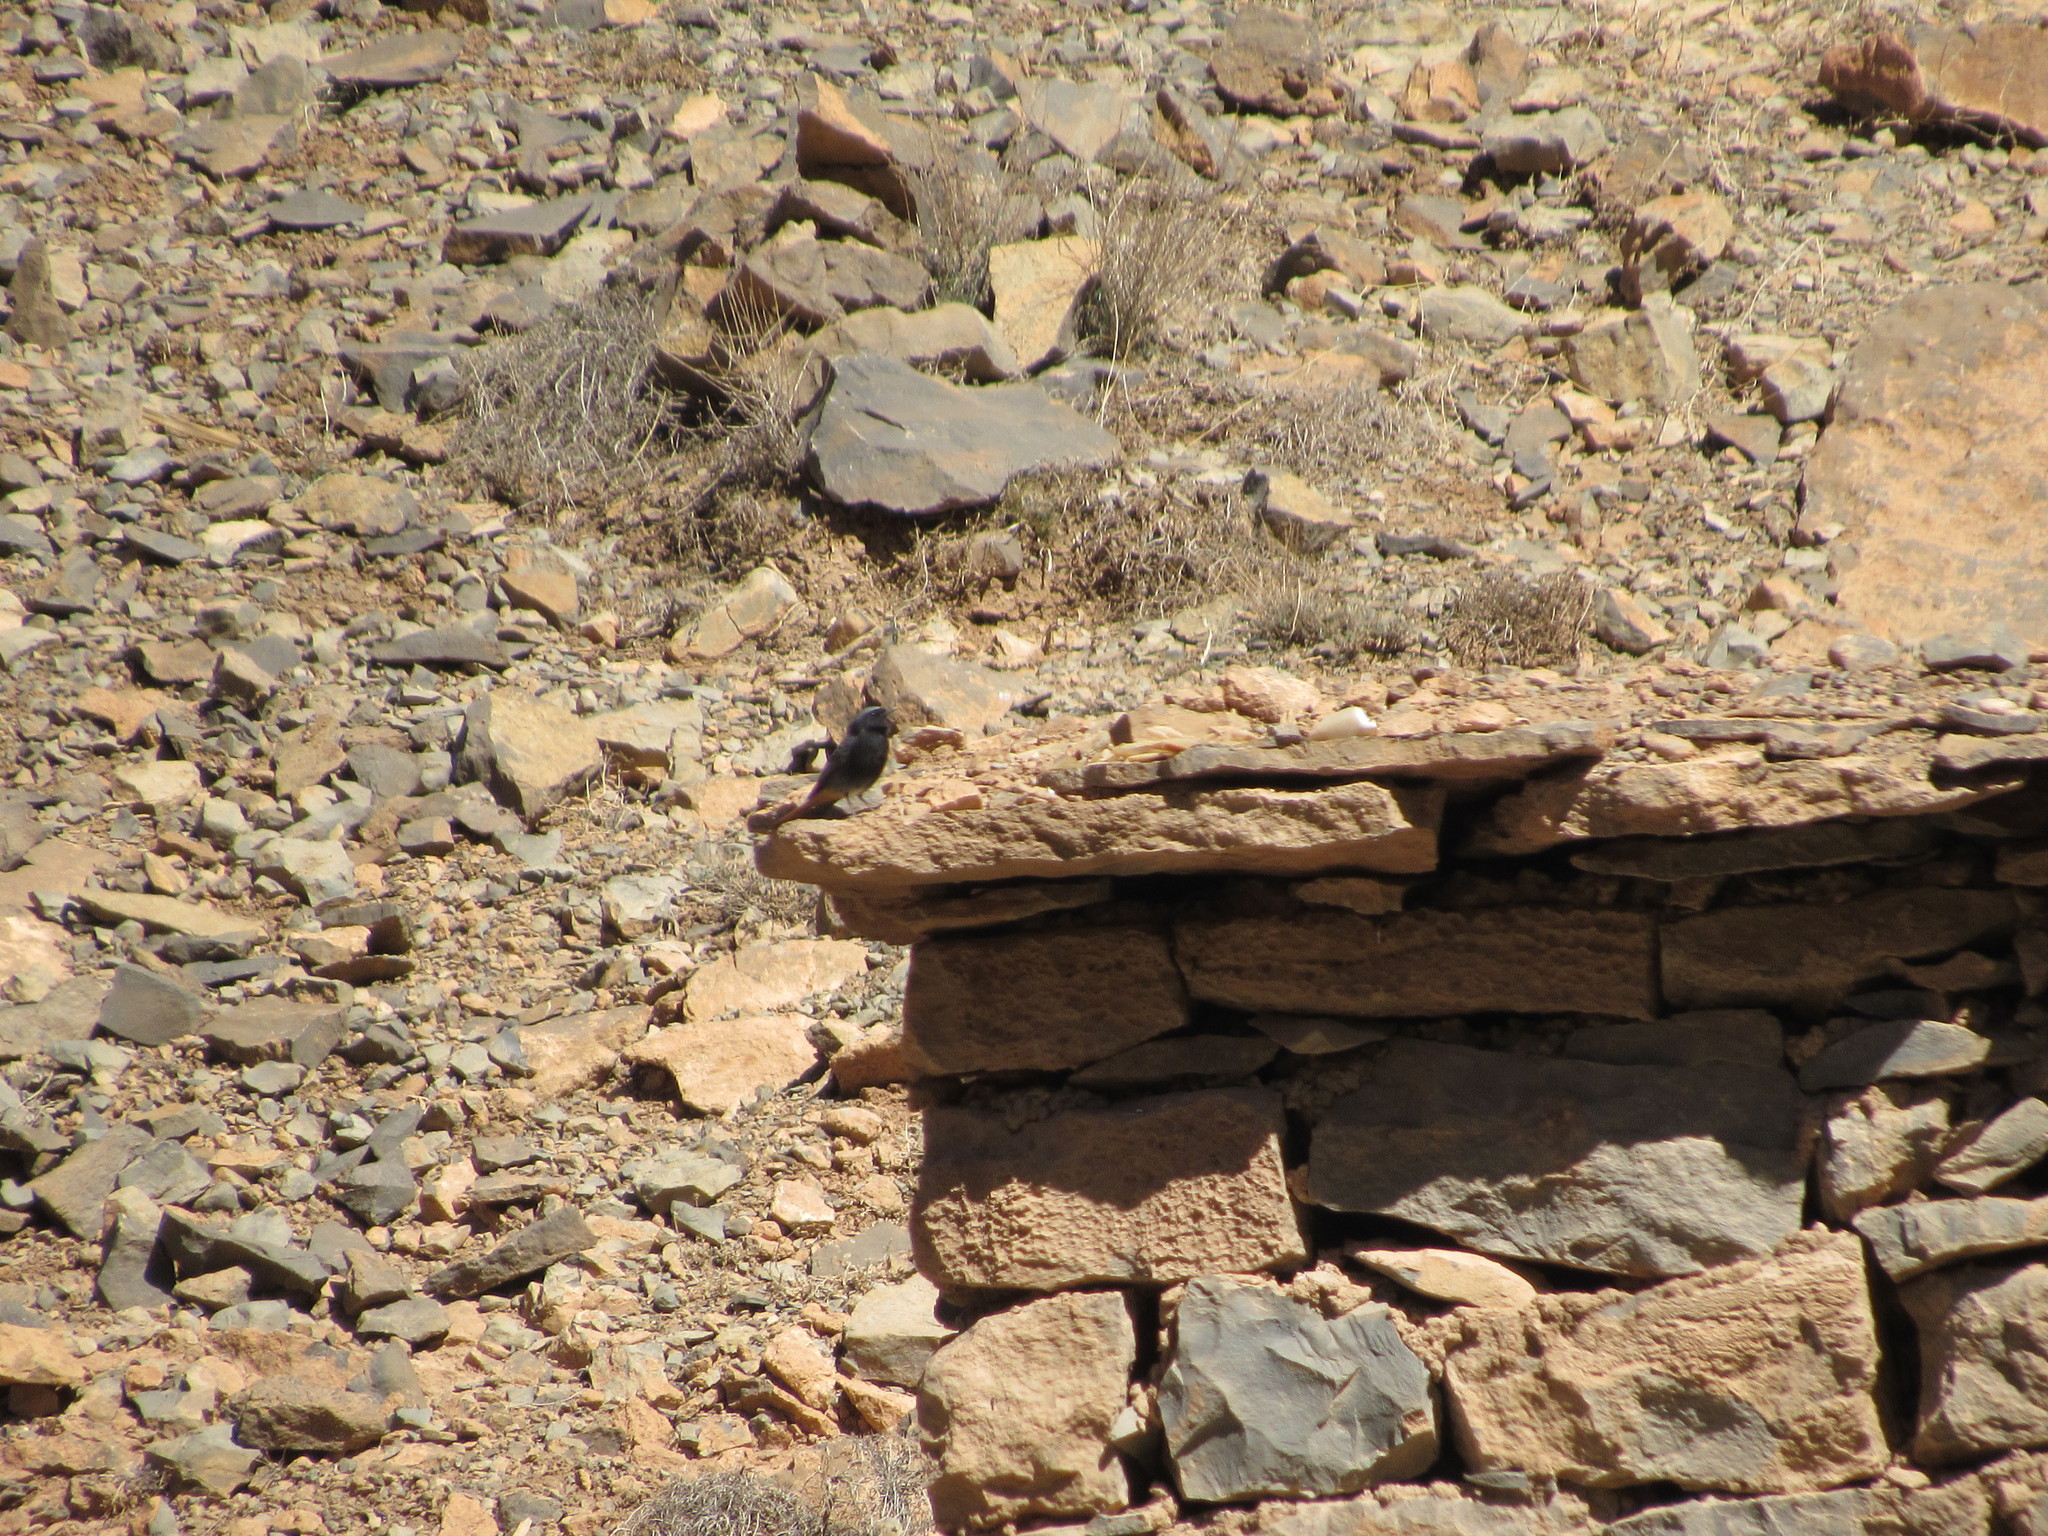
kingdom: Animalia
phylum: Chordata
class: Aves
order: Passeriformes
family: Muscicapidae
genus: Phoenicurus
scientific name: Phoenicurus ochruros
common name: Black redstart
